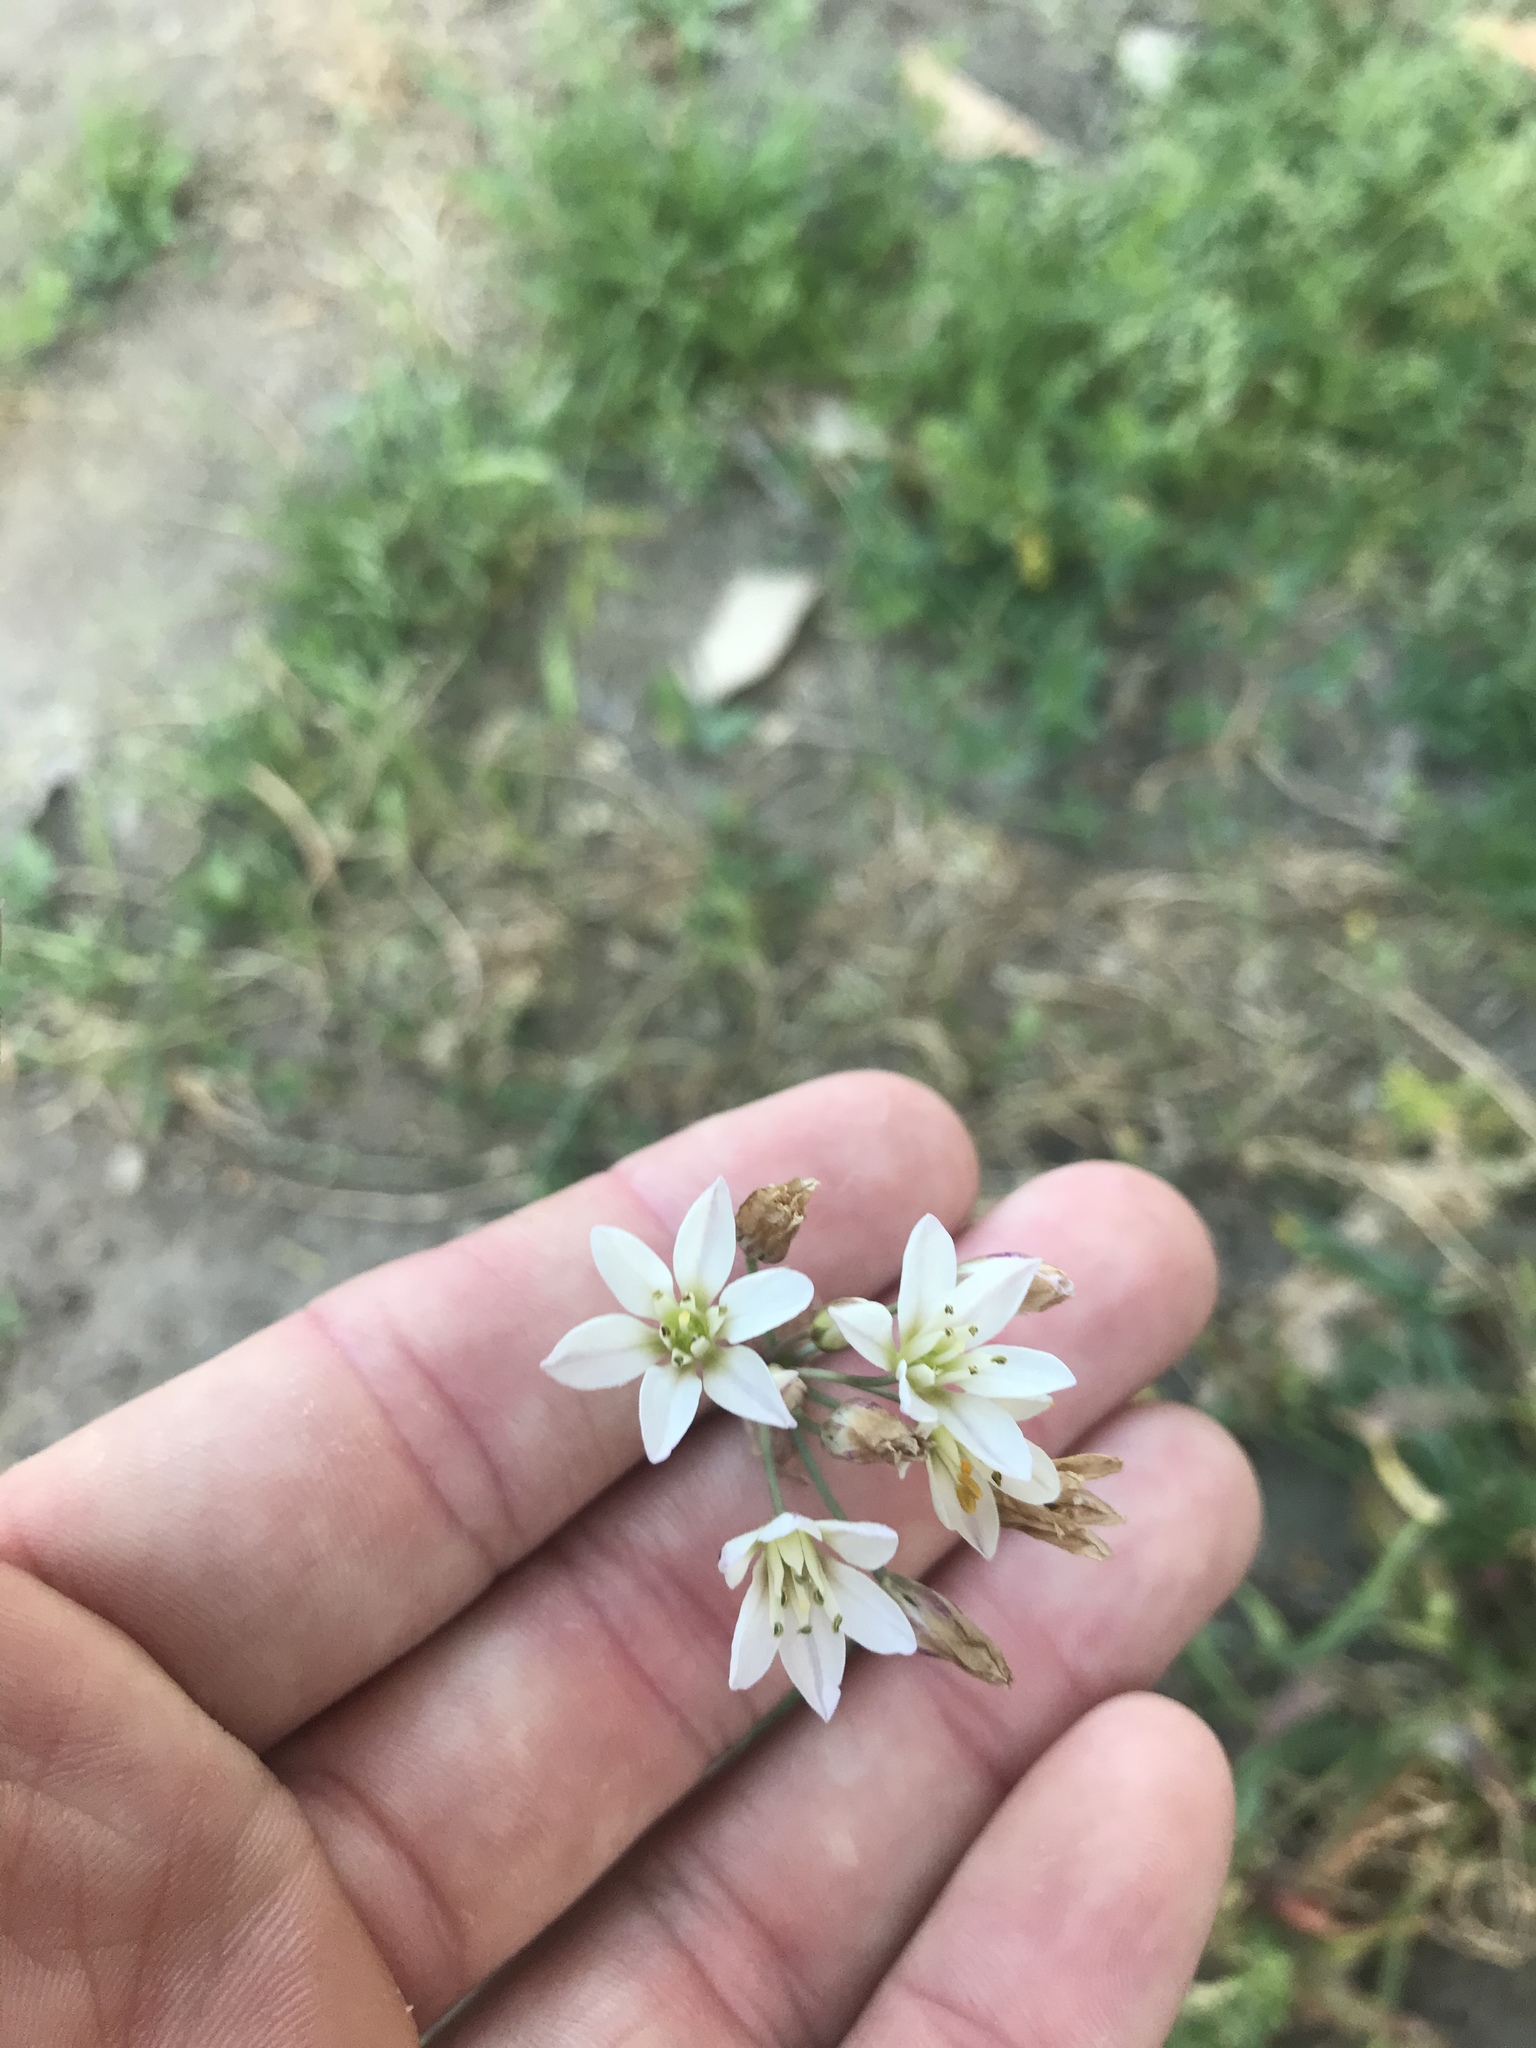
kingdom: Plantae
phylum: Tracheophyta
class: Liliopsida
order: Asparagales
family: Amaryllidaceae
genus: Nothoscordum
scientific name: Nothoscordum gracile
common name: Slender false garlic
